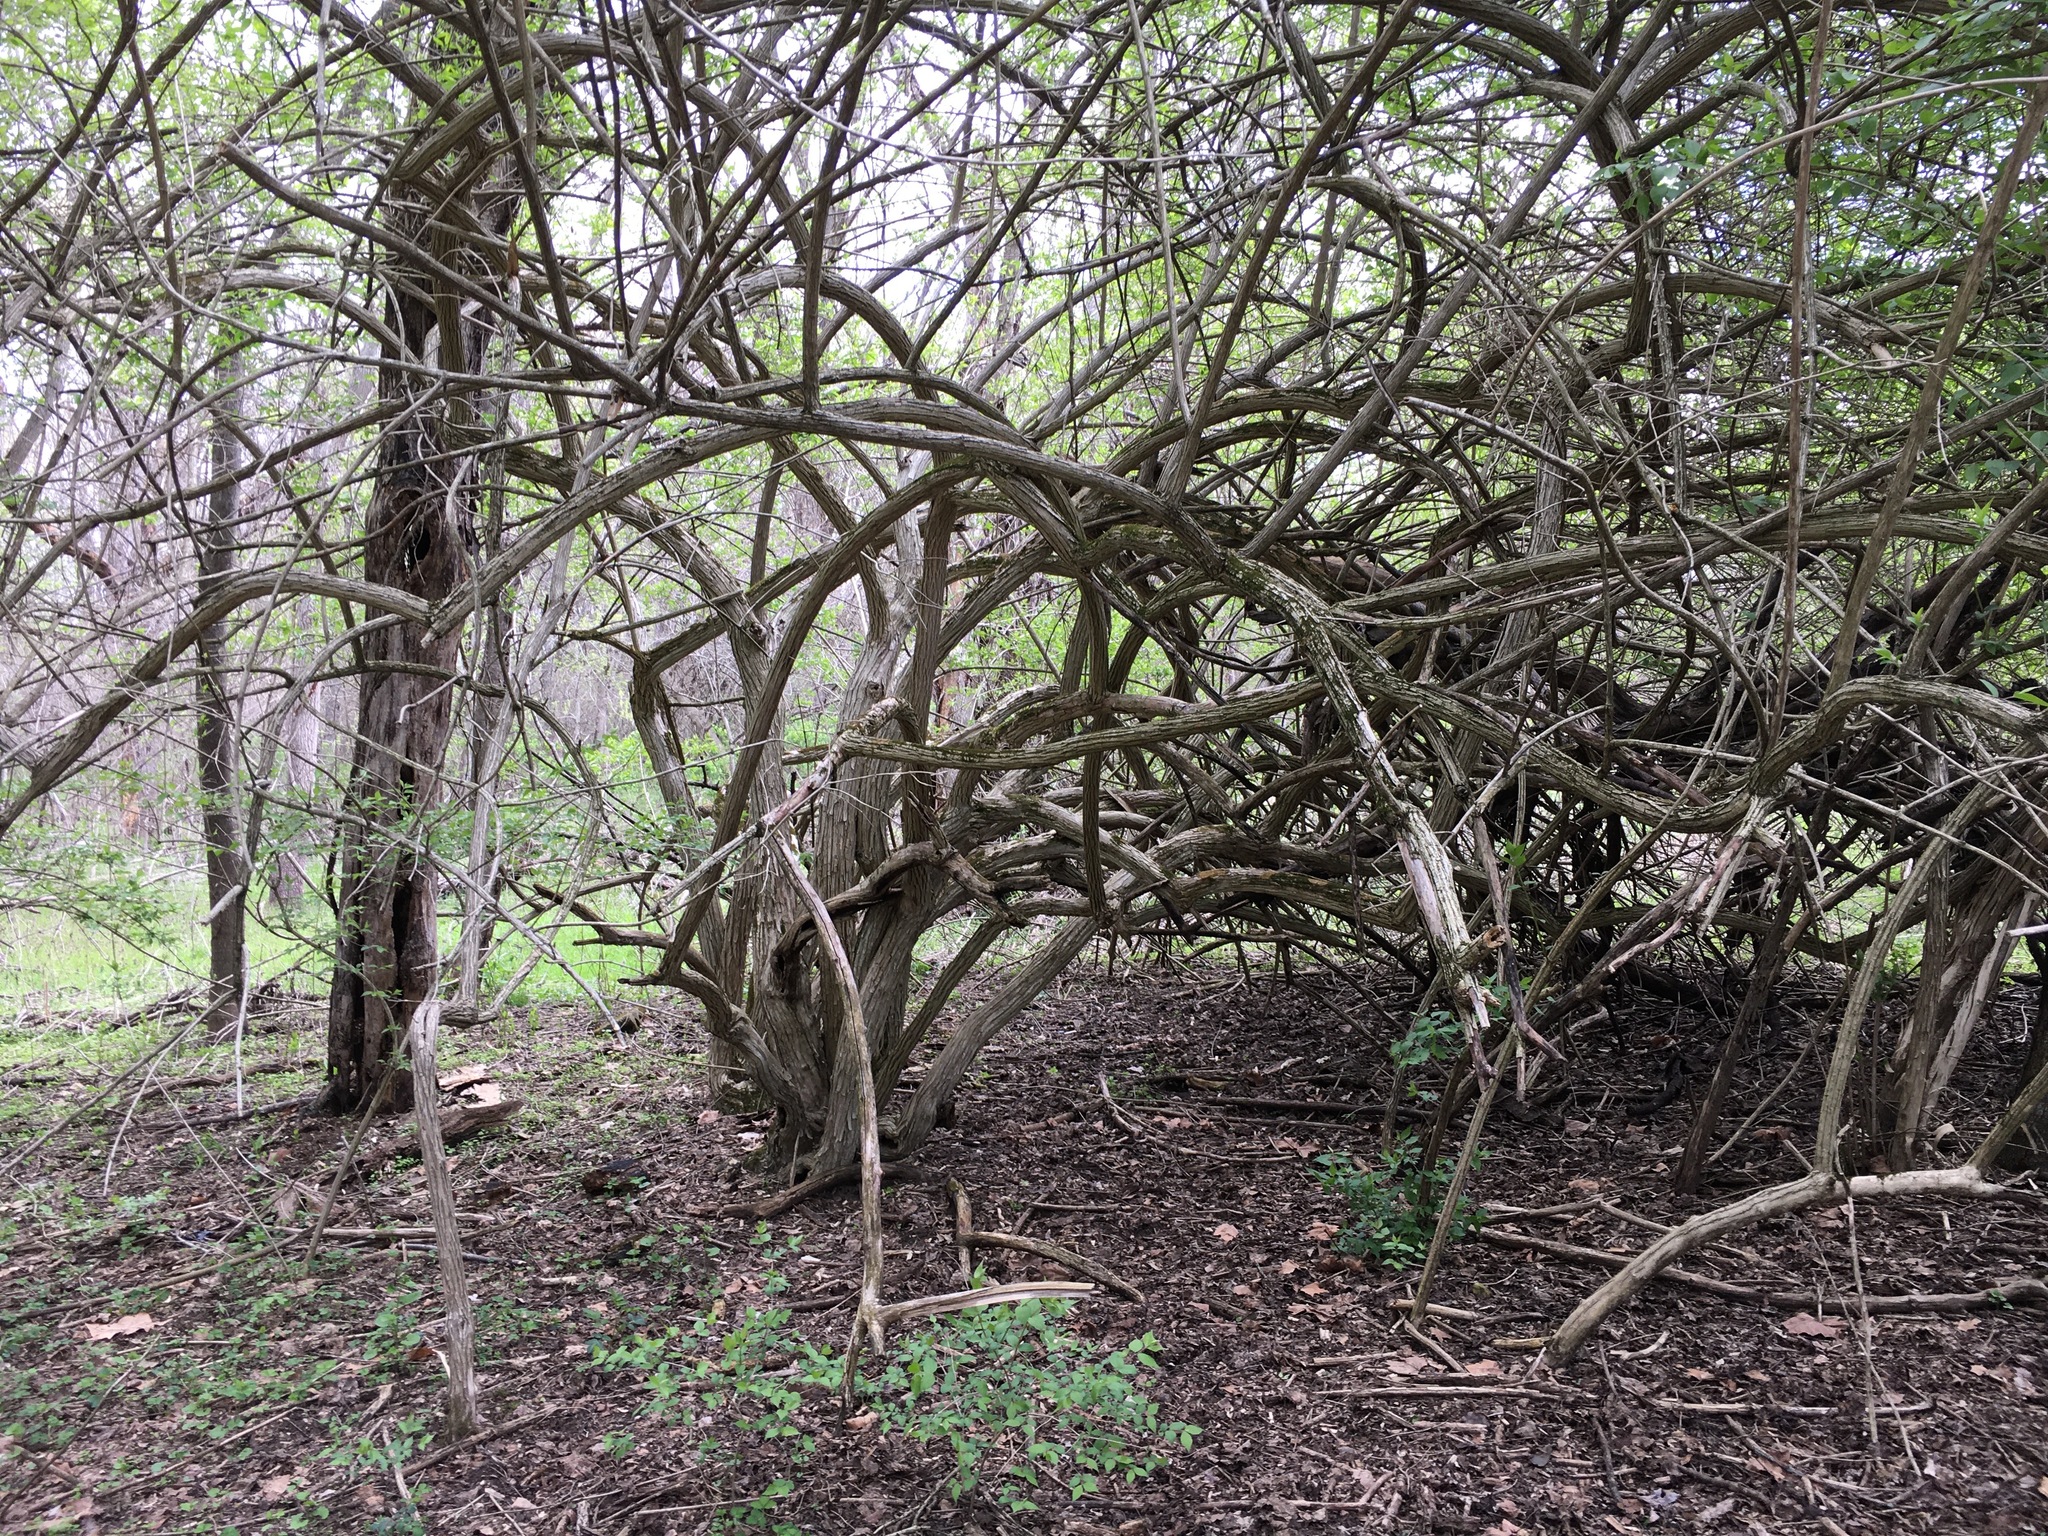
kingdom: Plantae
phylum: Tracheophyta
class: Magnoliopsida
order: Dipsacales
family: Caprifoliaceae
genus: Lonicera
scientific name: Lonicera maackii
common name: Amur honeysuckle
